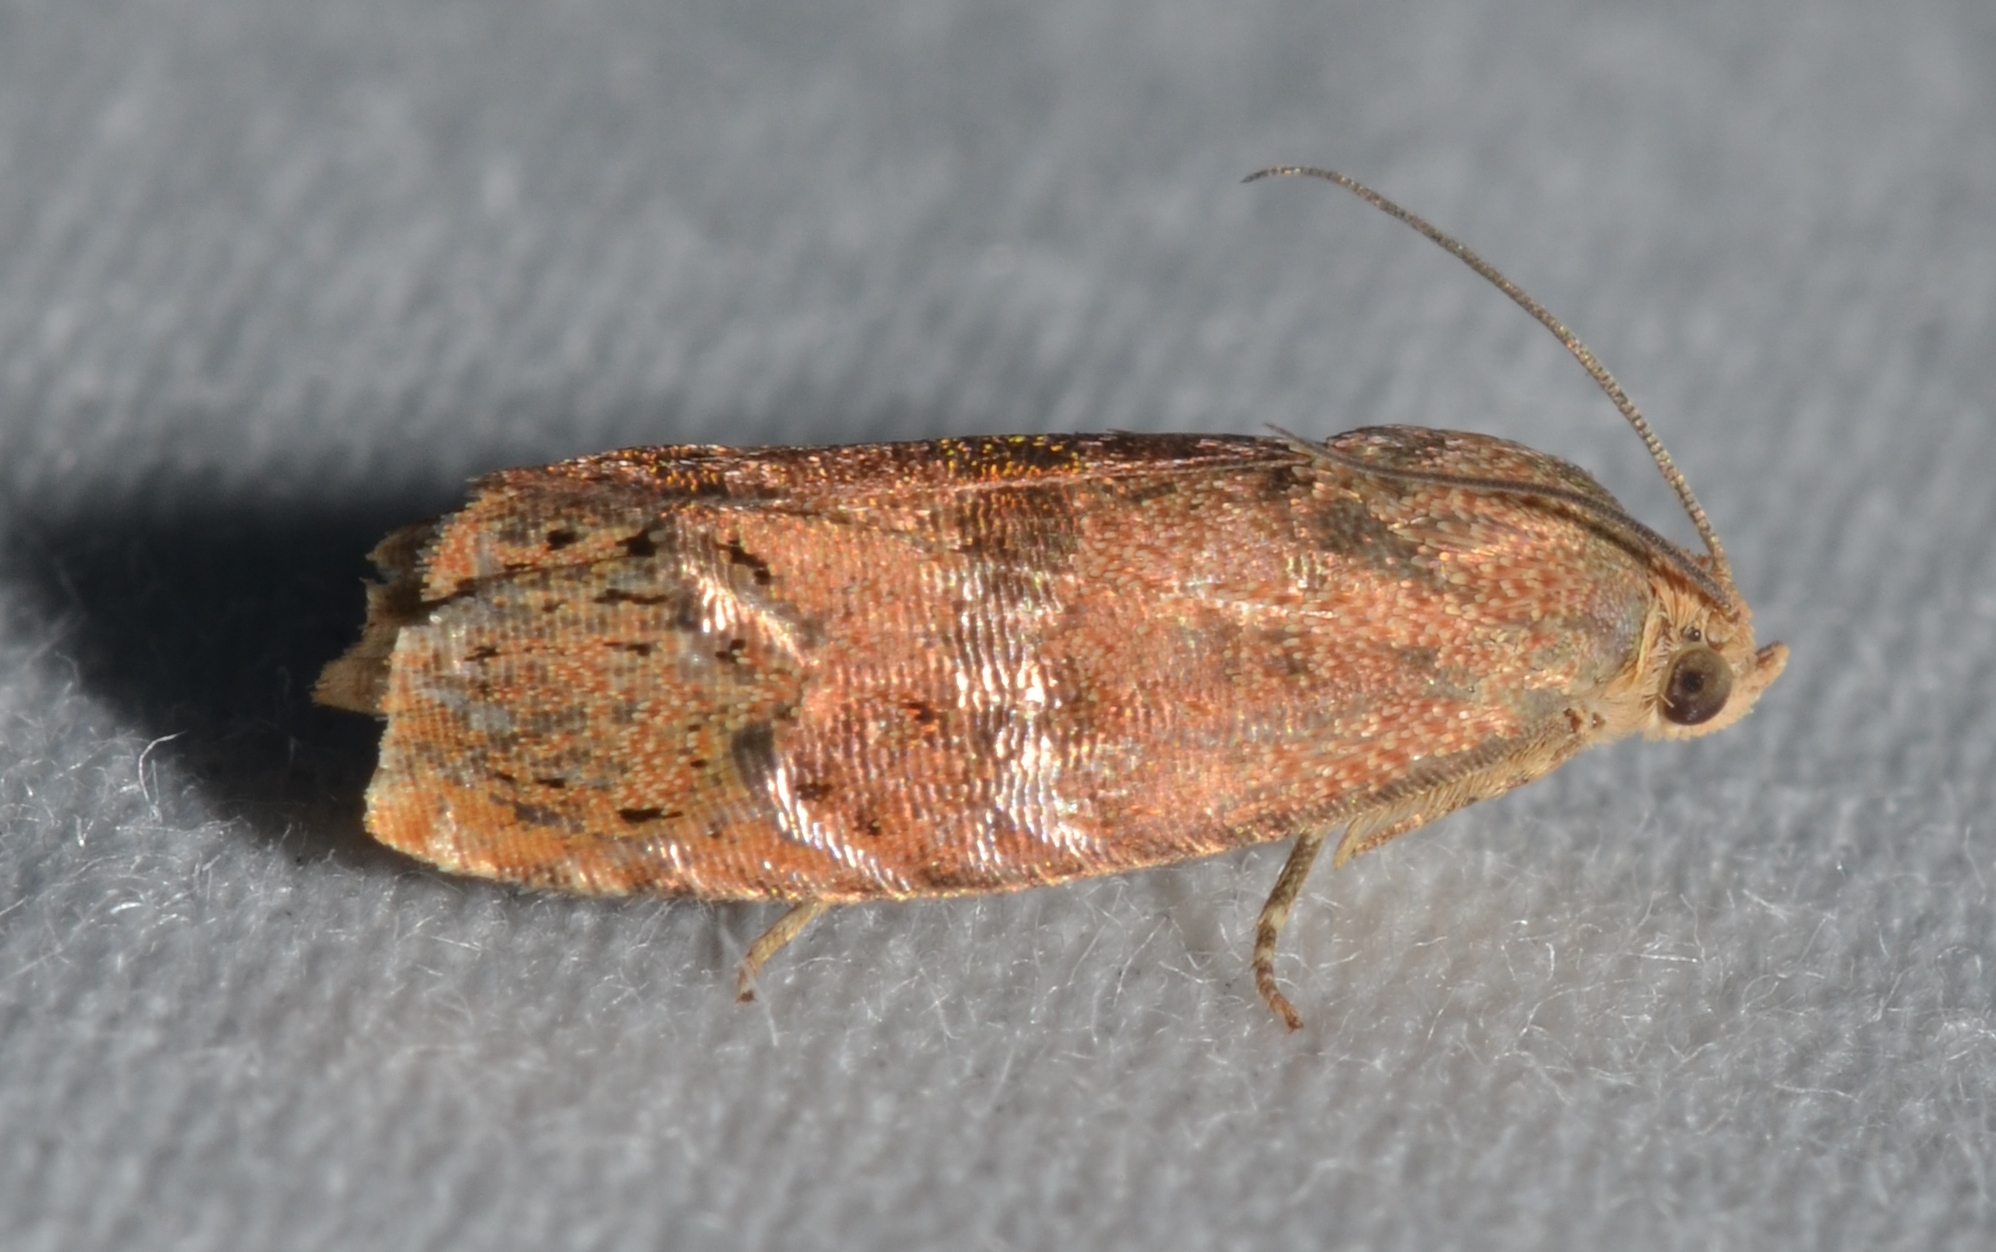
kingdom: Animalia
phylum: Arthropoda
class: Insecta
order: Lepidoptera
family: Tortricidae
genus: Cydia
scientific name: Cydia latiferreana
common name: Filbertworm moth
